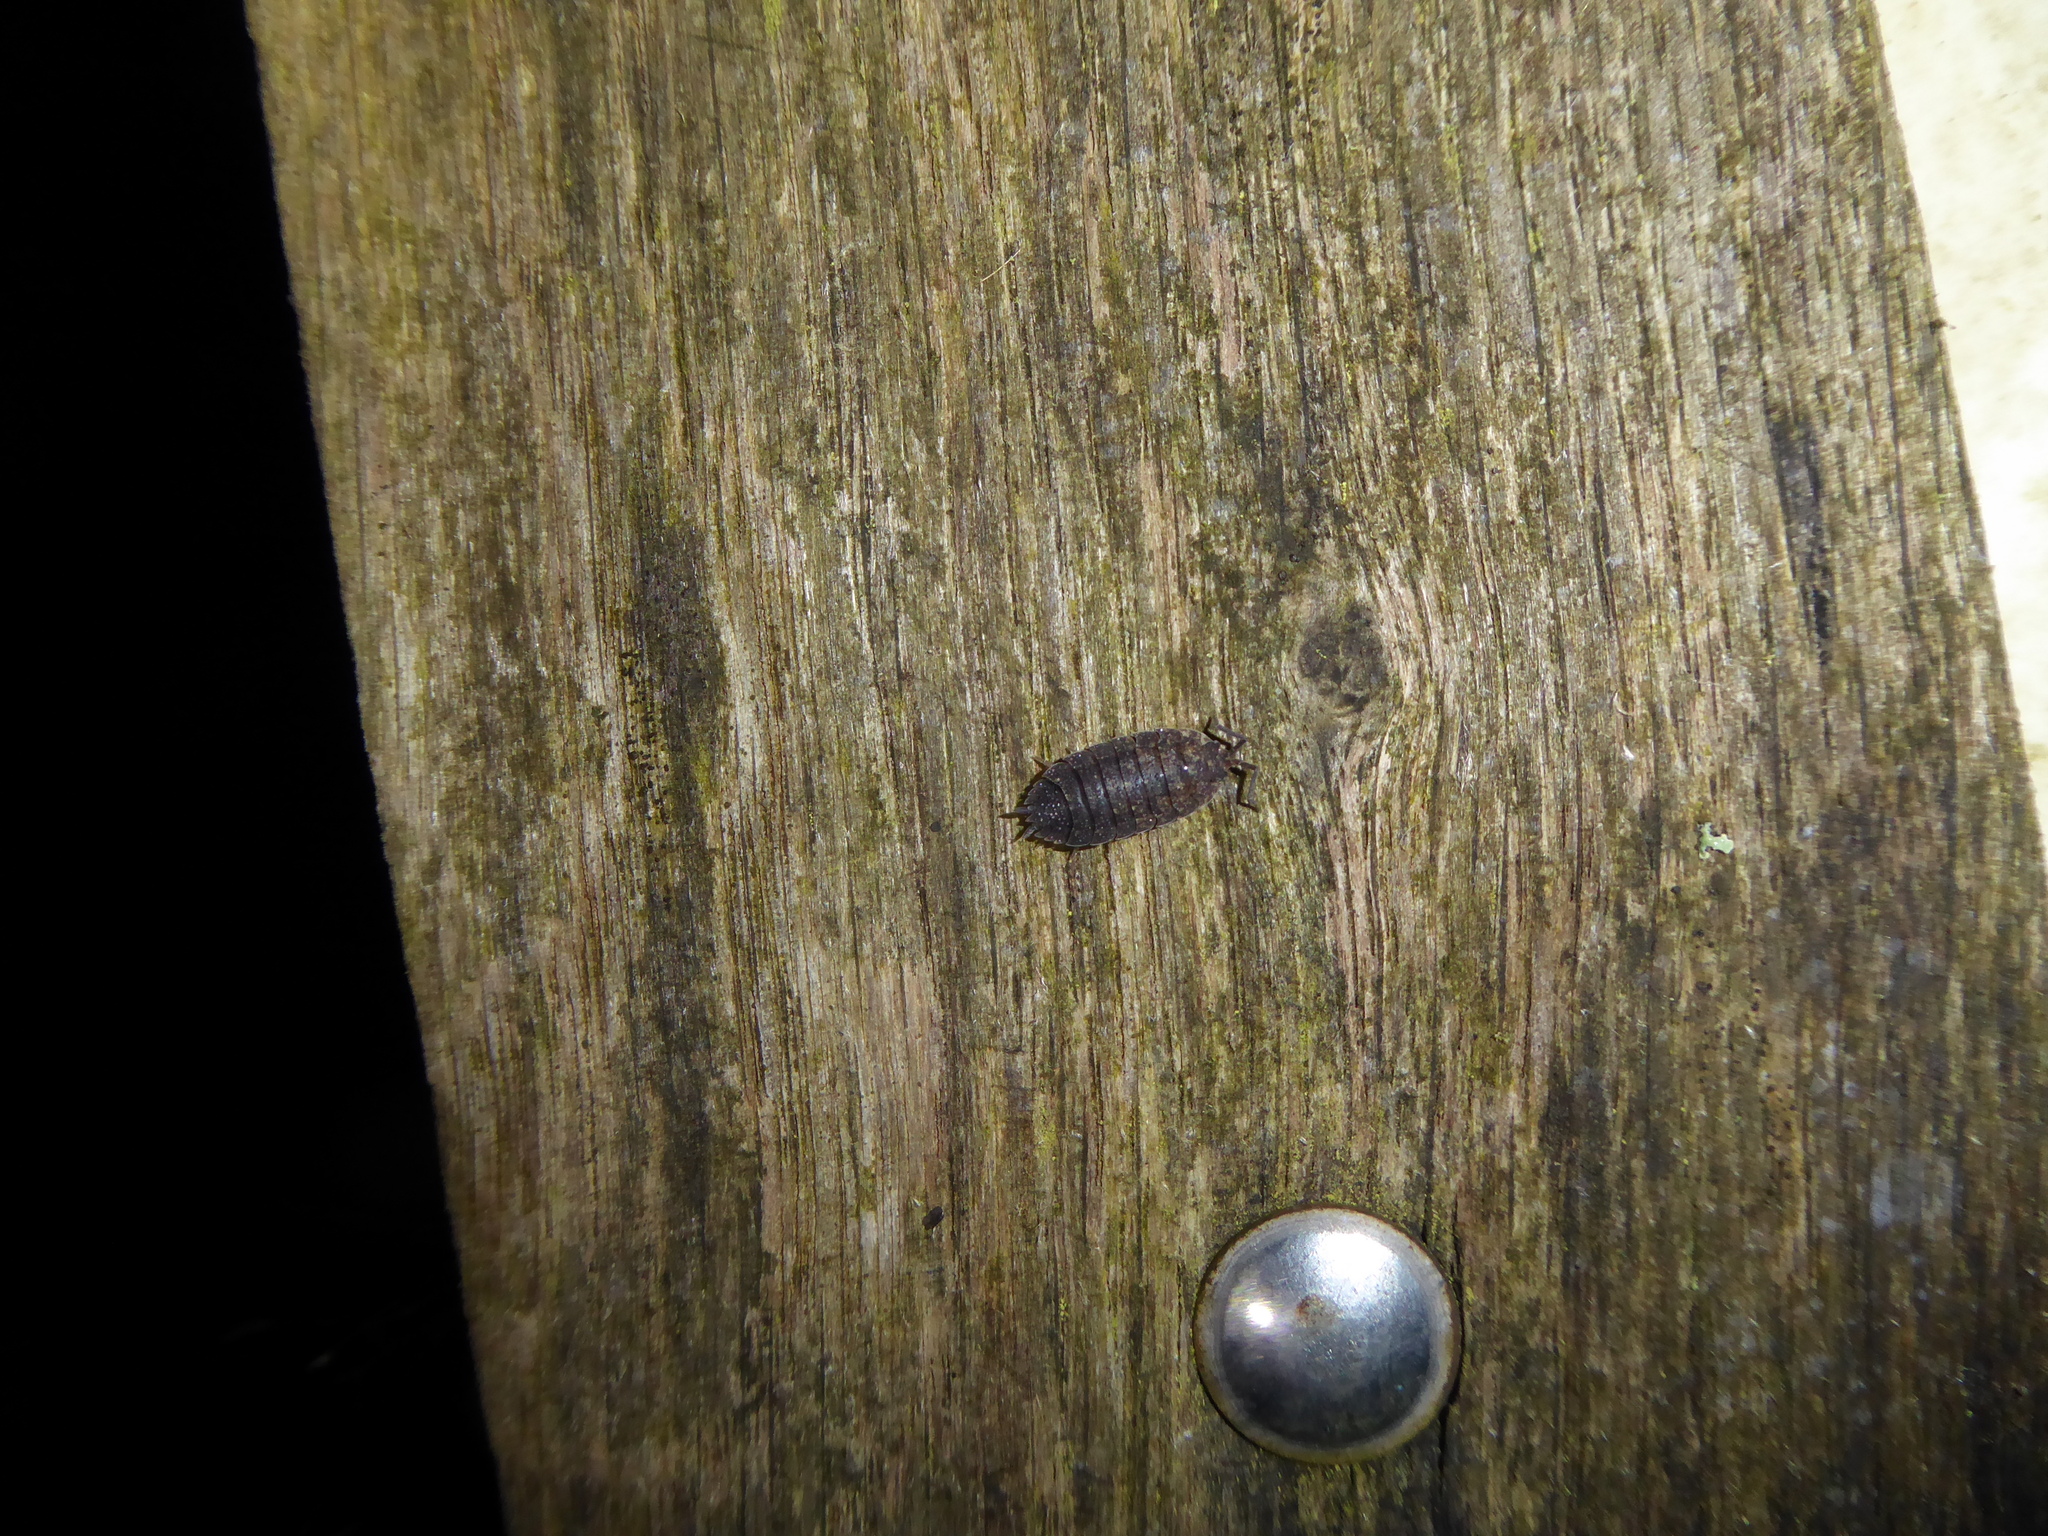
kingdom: Animalia
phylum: Arthropoda
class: Malacostraca
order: Isopoda
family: Porcellionidae
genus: Porcellio
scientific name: Porcellio scaber
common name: Common rough woodlouse
